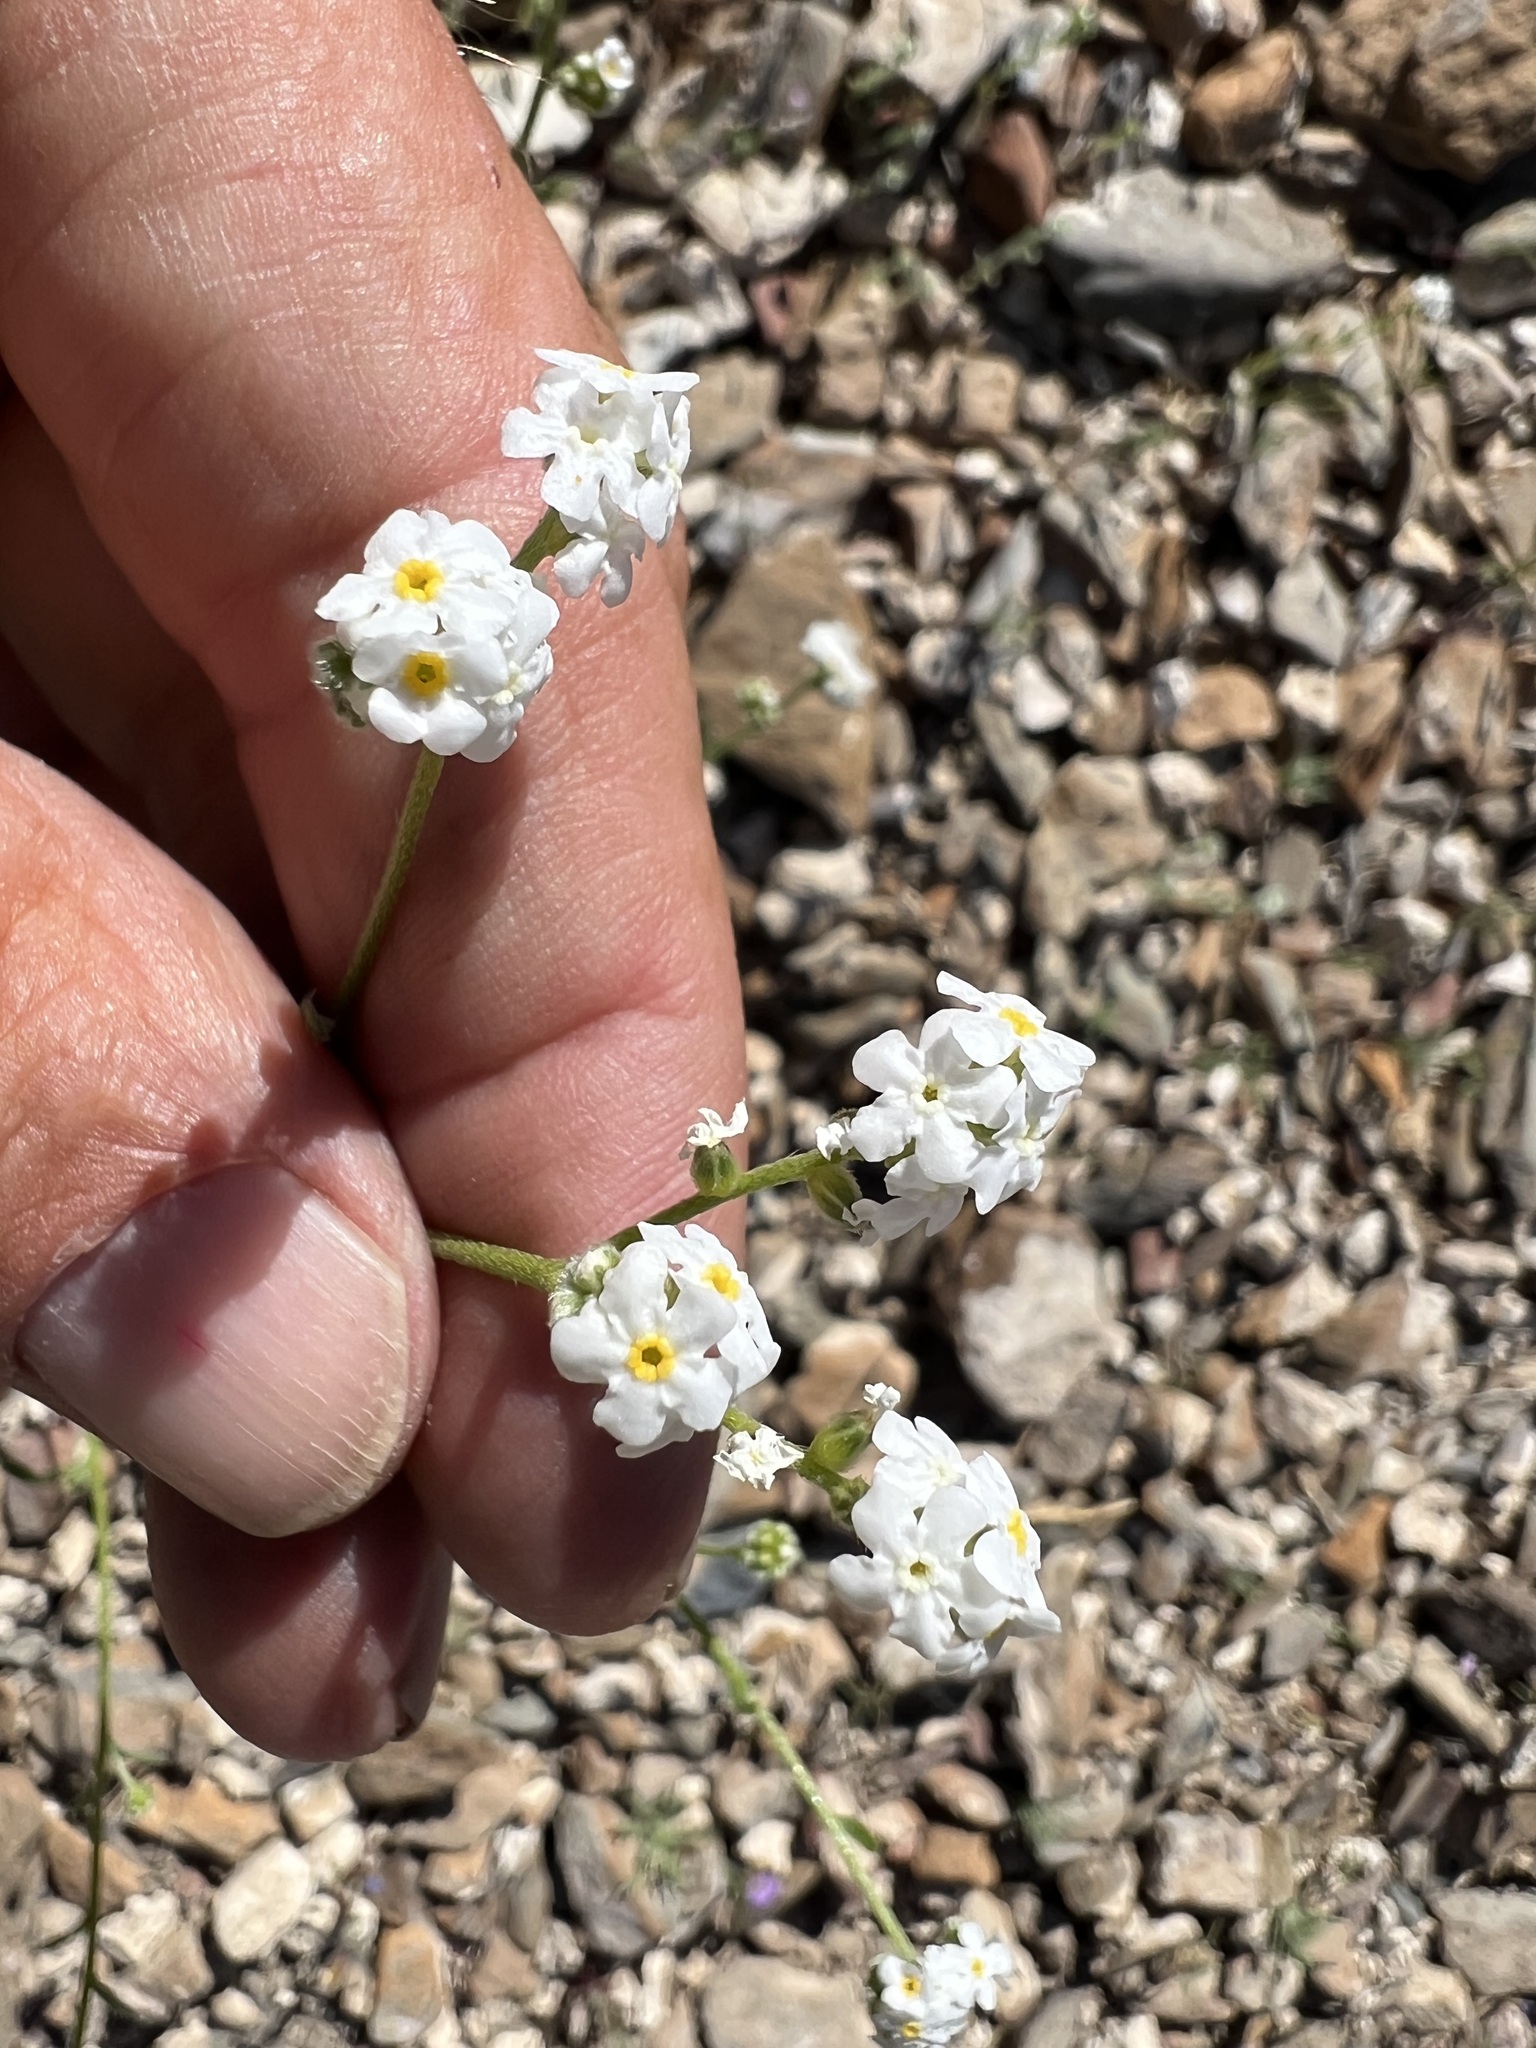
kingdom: Plantae
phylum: Tracheophyta
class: Magnoliopsida
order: Boraginales
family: Boraginaceae
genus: Cryptantha
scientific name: Cryptantha utahensis
